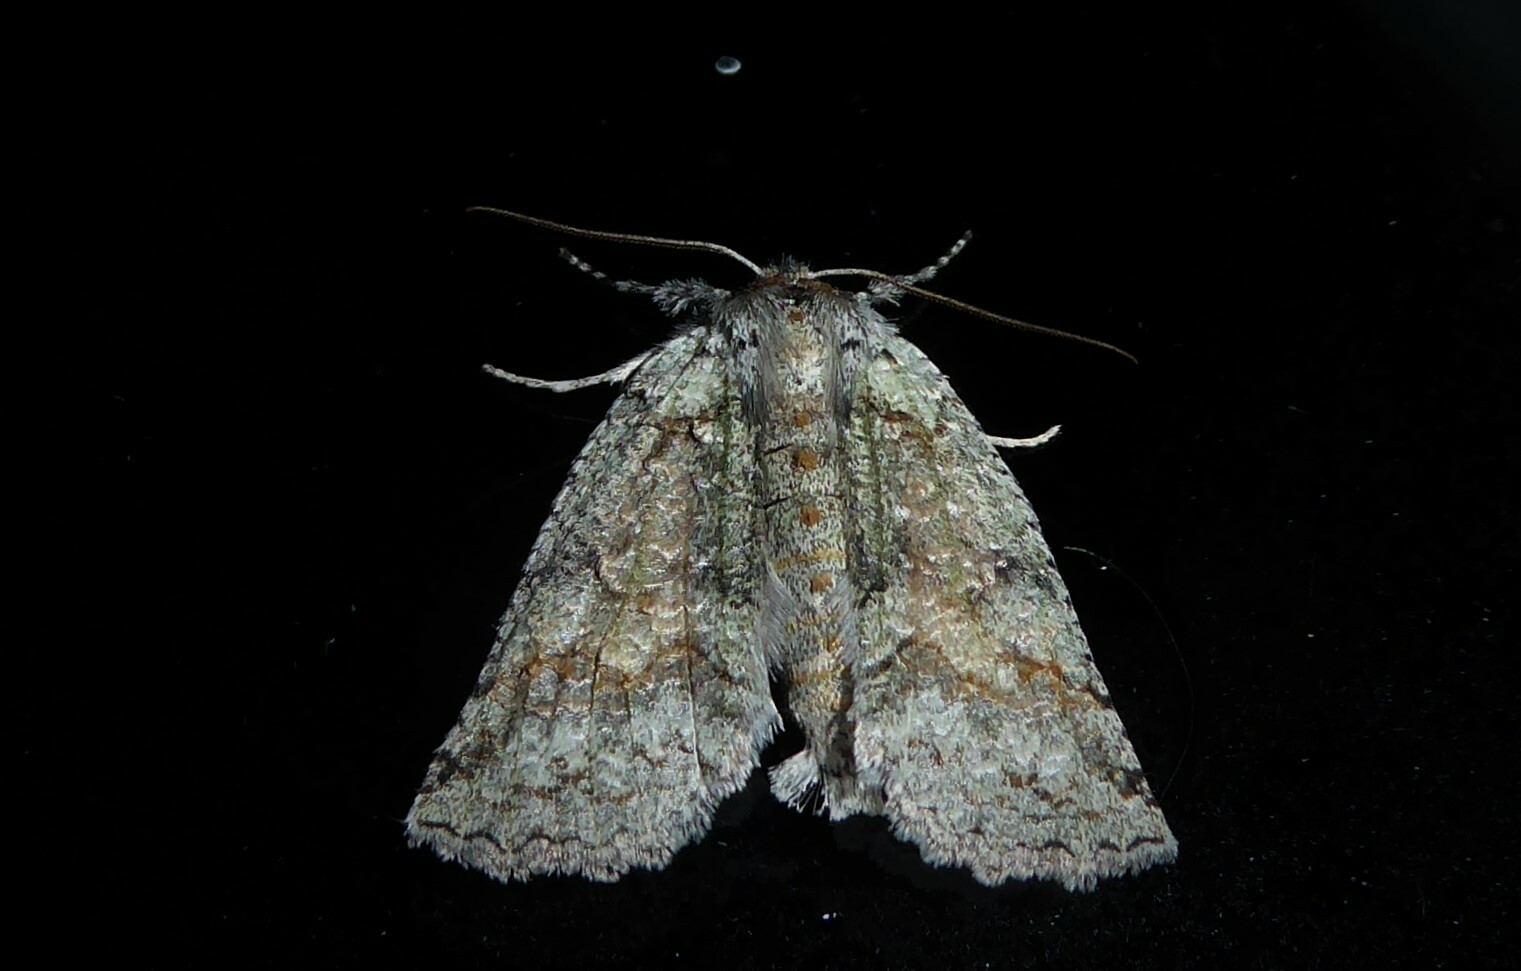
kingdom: Animalia
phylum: Arthropoda
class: Insecta
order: Lepidoptera
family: Geometridae
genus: Declana
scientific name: Declana floccosa
